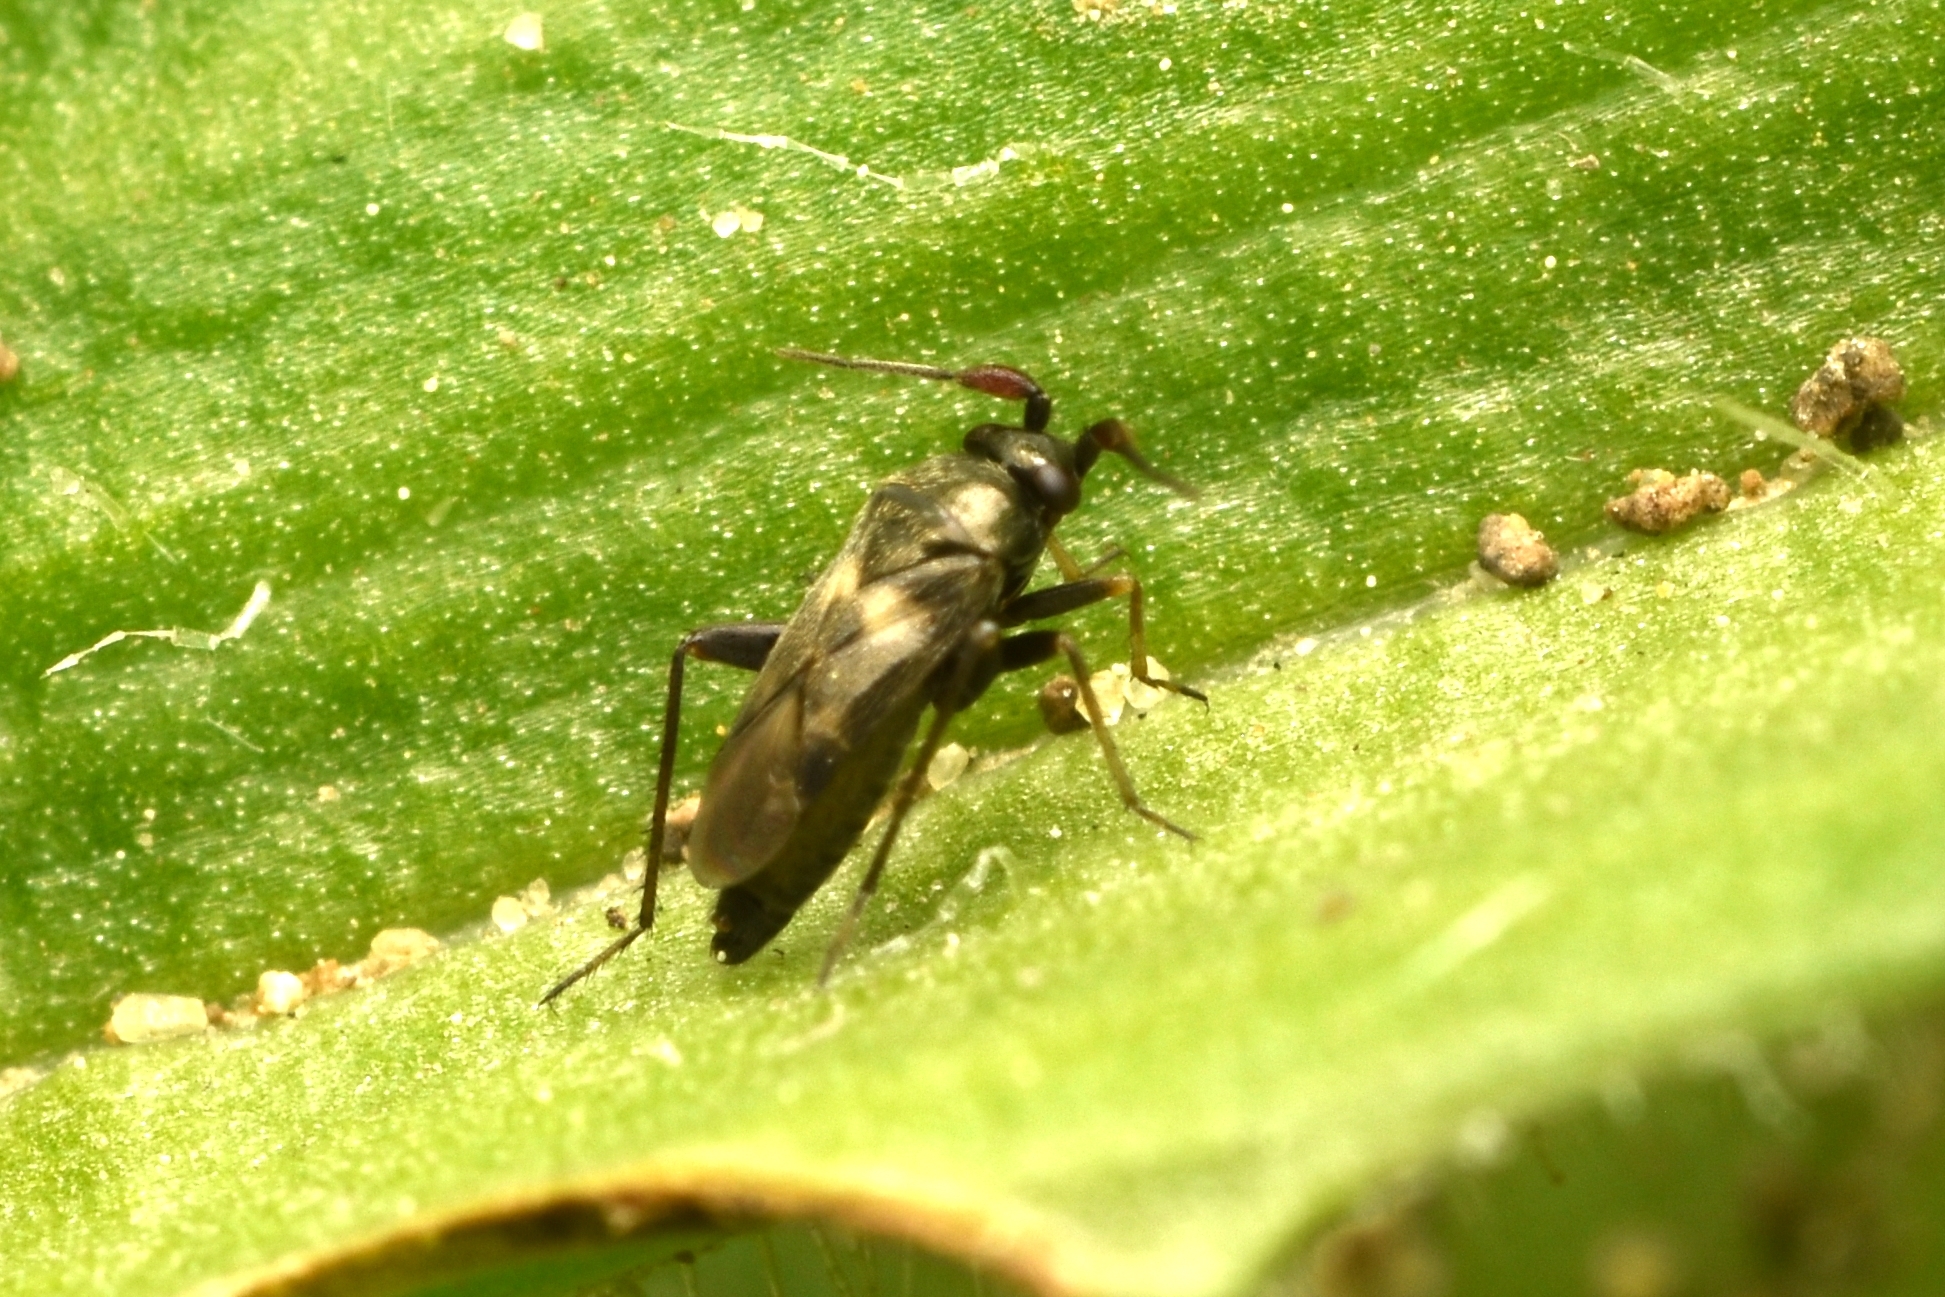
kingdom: Animalia
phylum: Arthropoda
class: Insecta
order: Hemiptera
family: Miridae
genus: Spanagonicus
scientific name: Spanagonicus albofasciatus
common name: Whitemarked fleahopper
